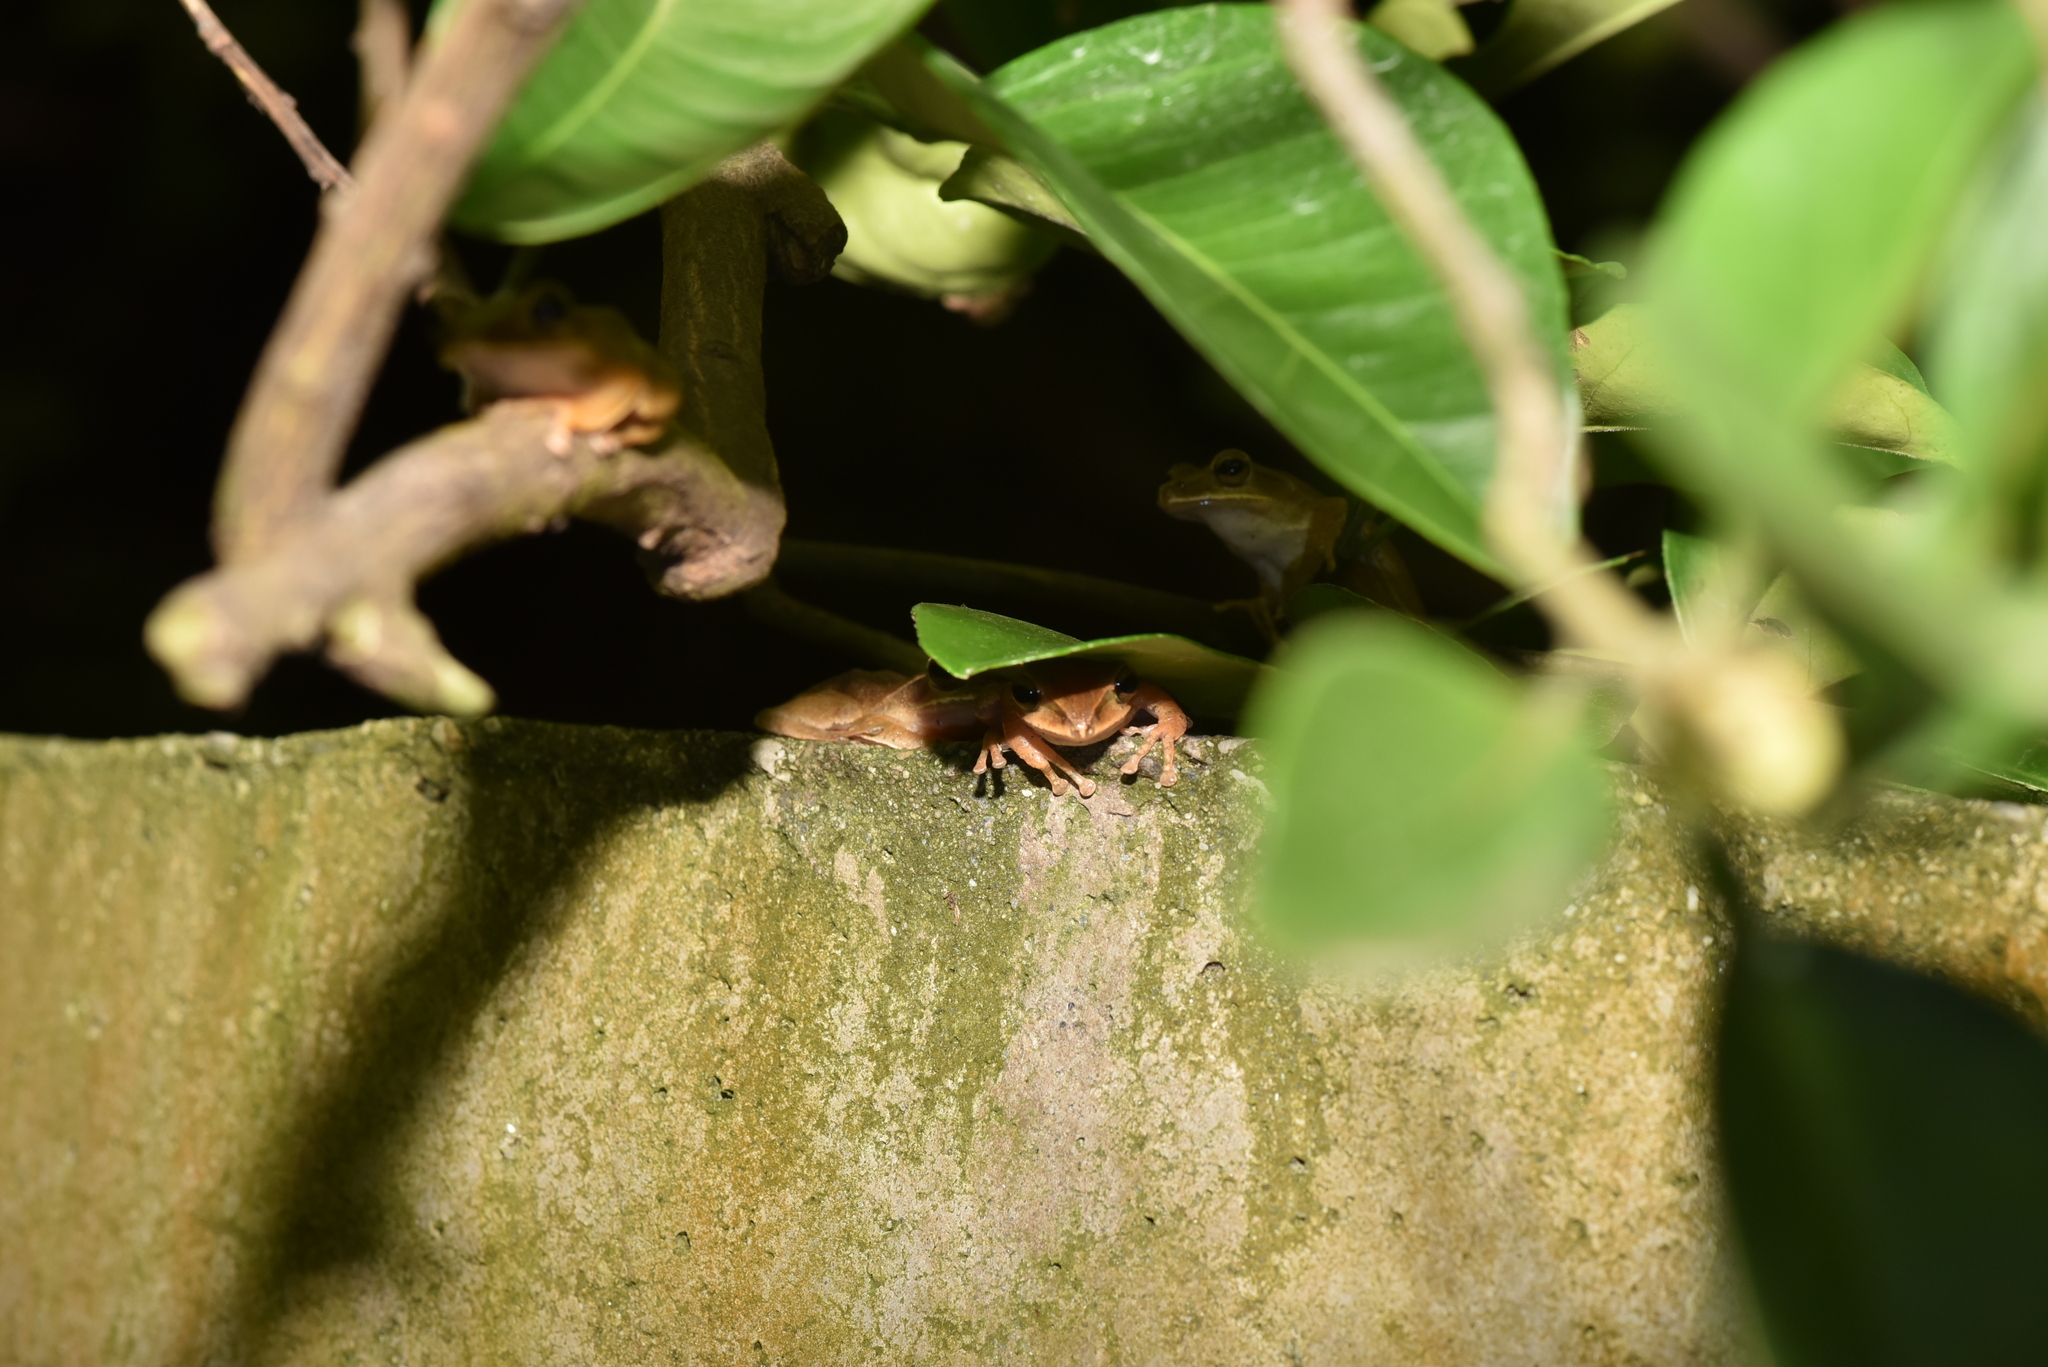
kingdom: Animalia
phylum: Chordata
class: Amphibia
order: Anura
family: Rhacophoridae
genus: Polypedates
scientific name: Polypedates braueri
